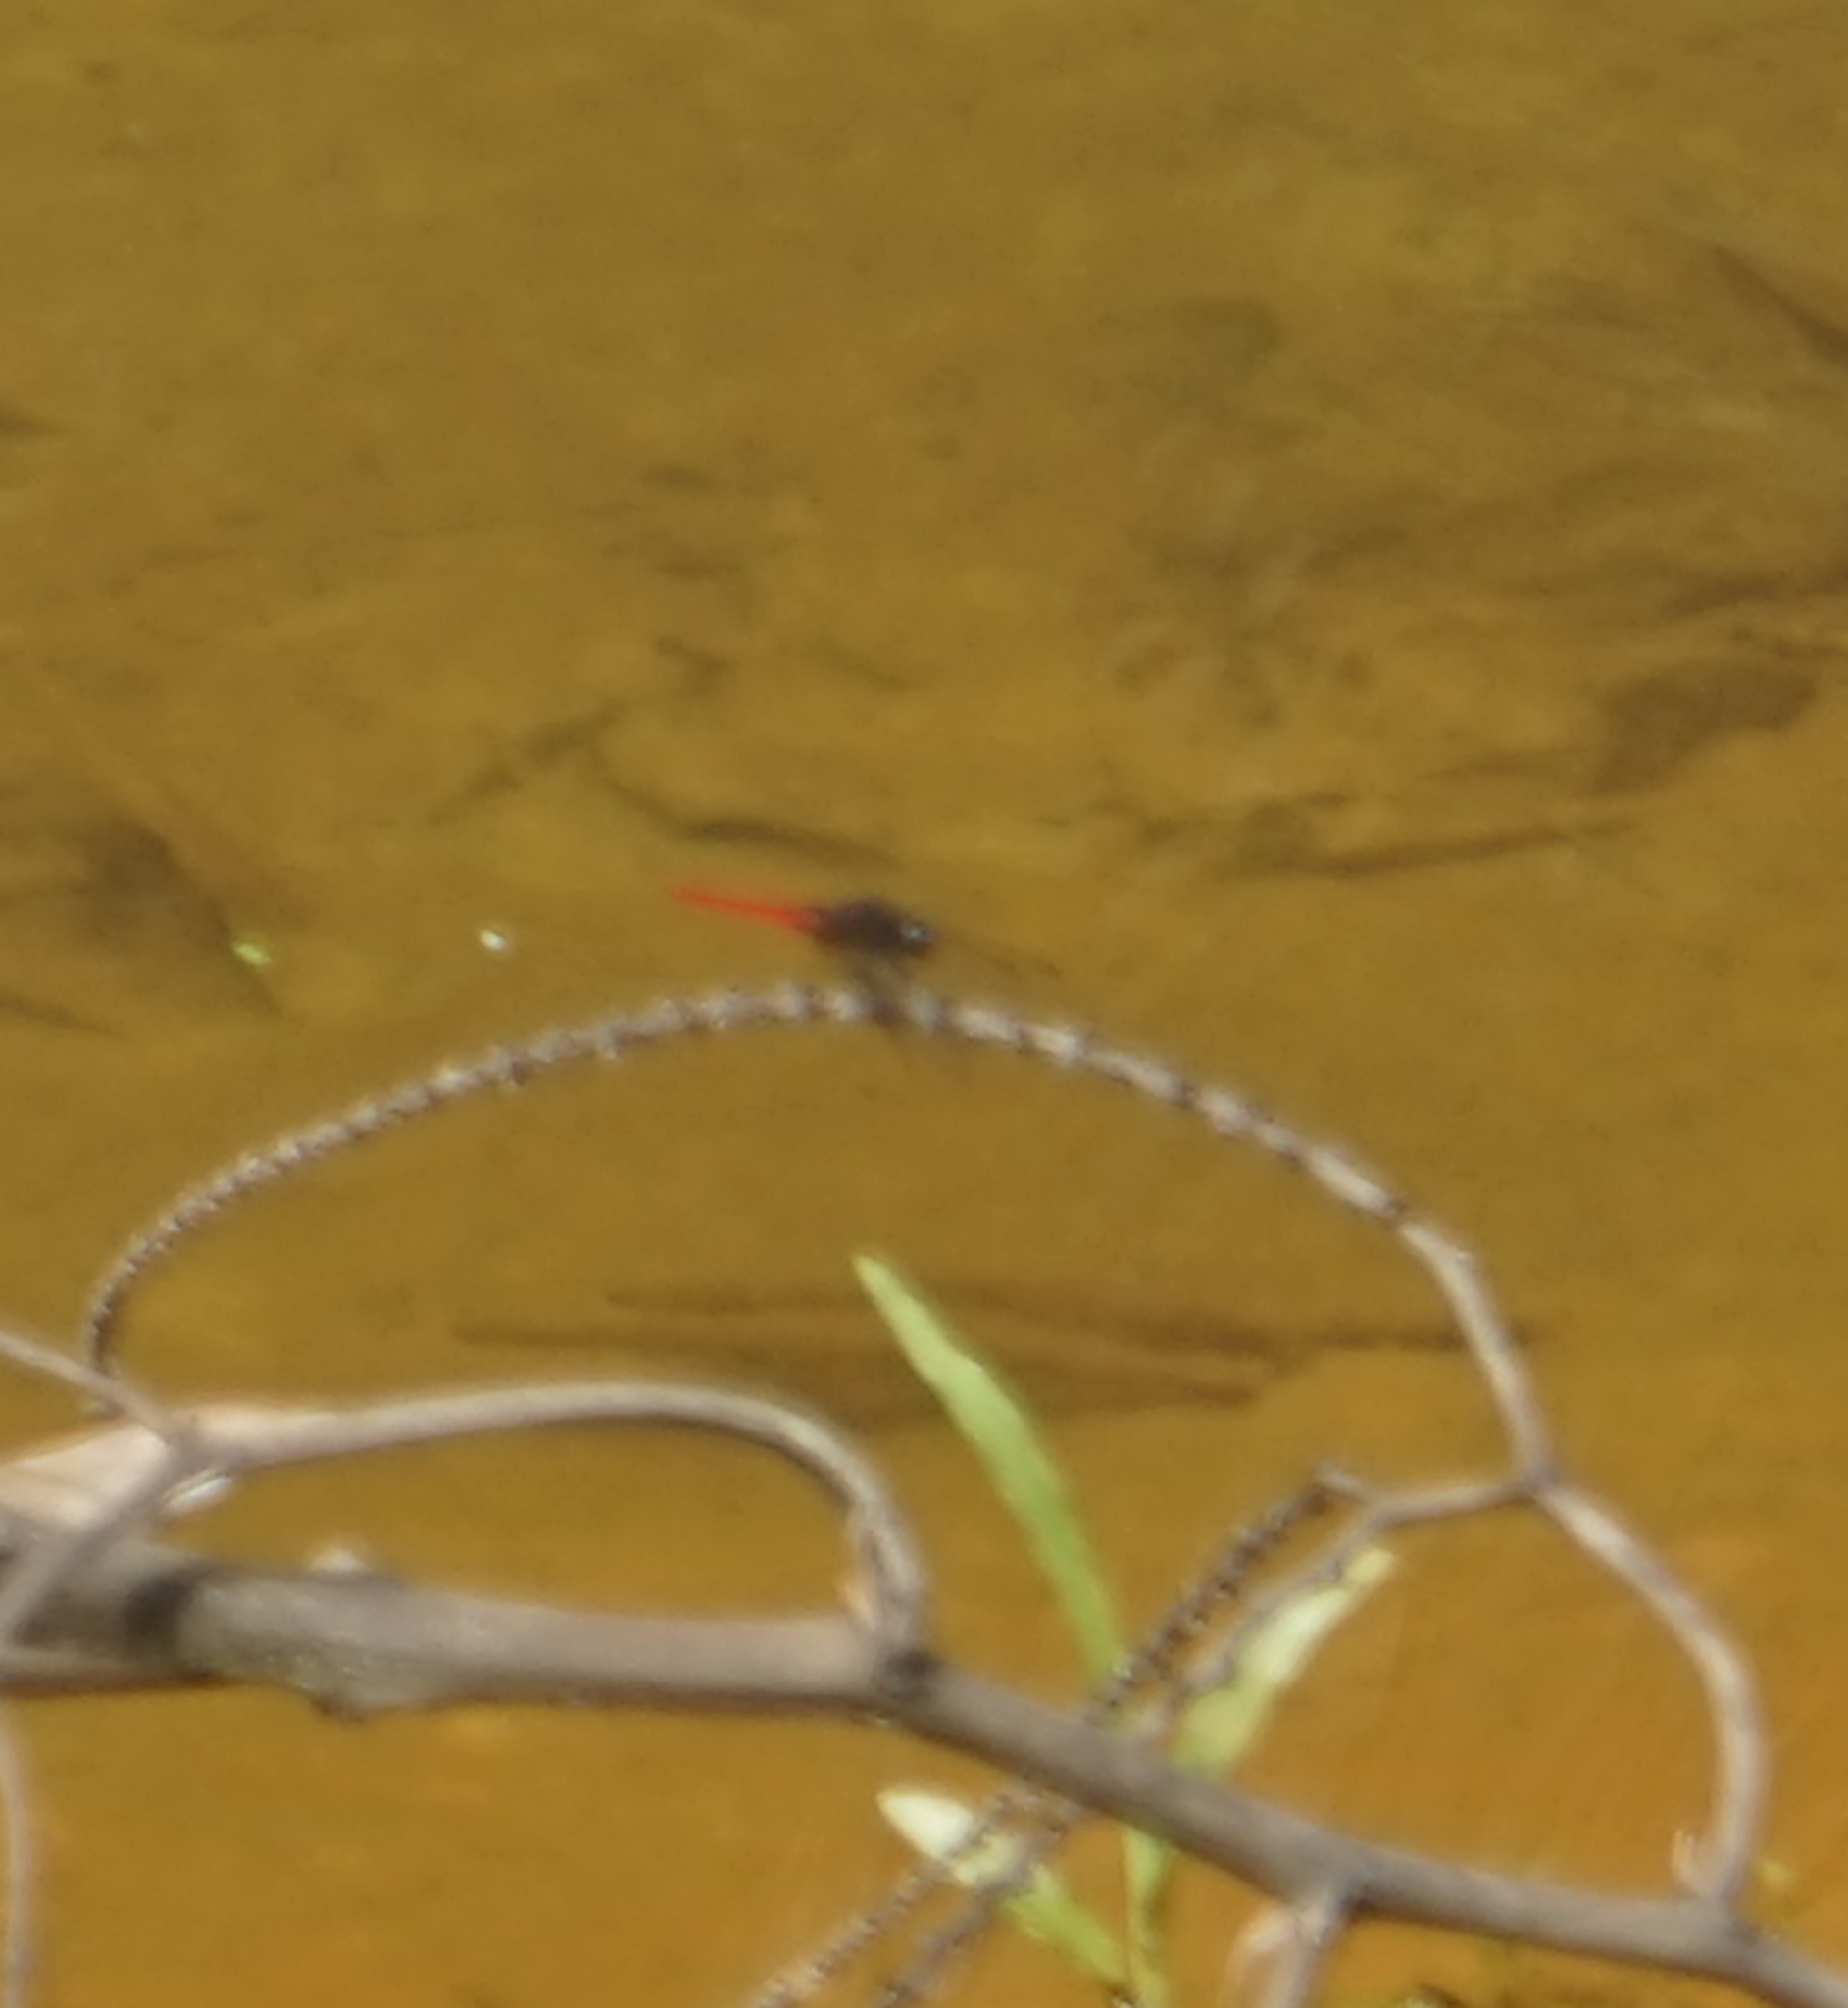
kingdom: Animalia
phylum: Arthropoda
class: Insecta
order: Odonata
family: Libellulidae
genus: Orthetrum
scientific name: Orthetrum chrysis
